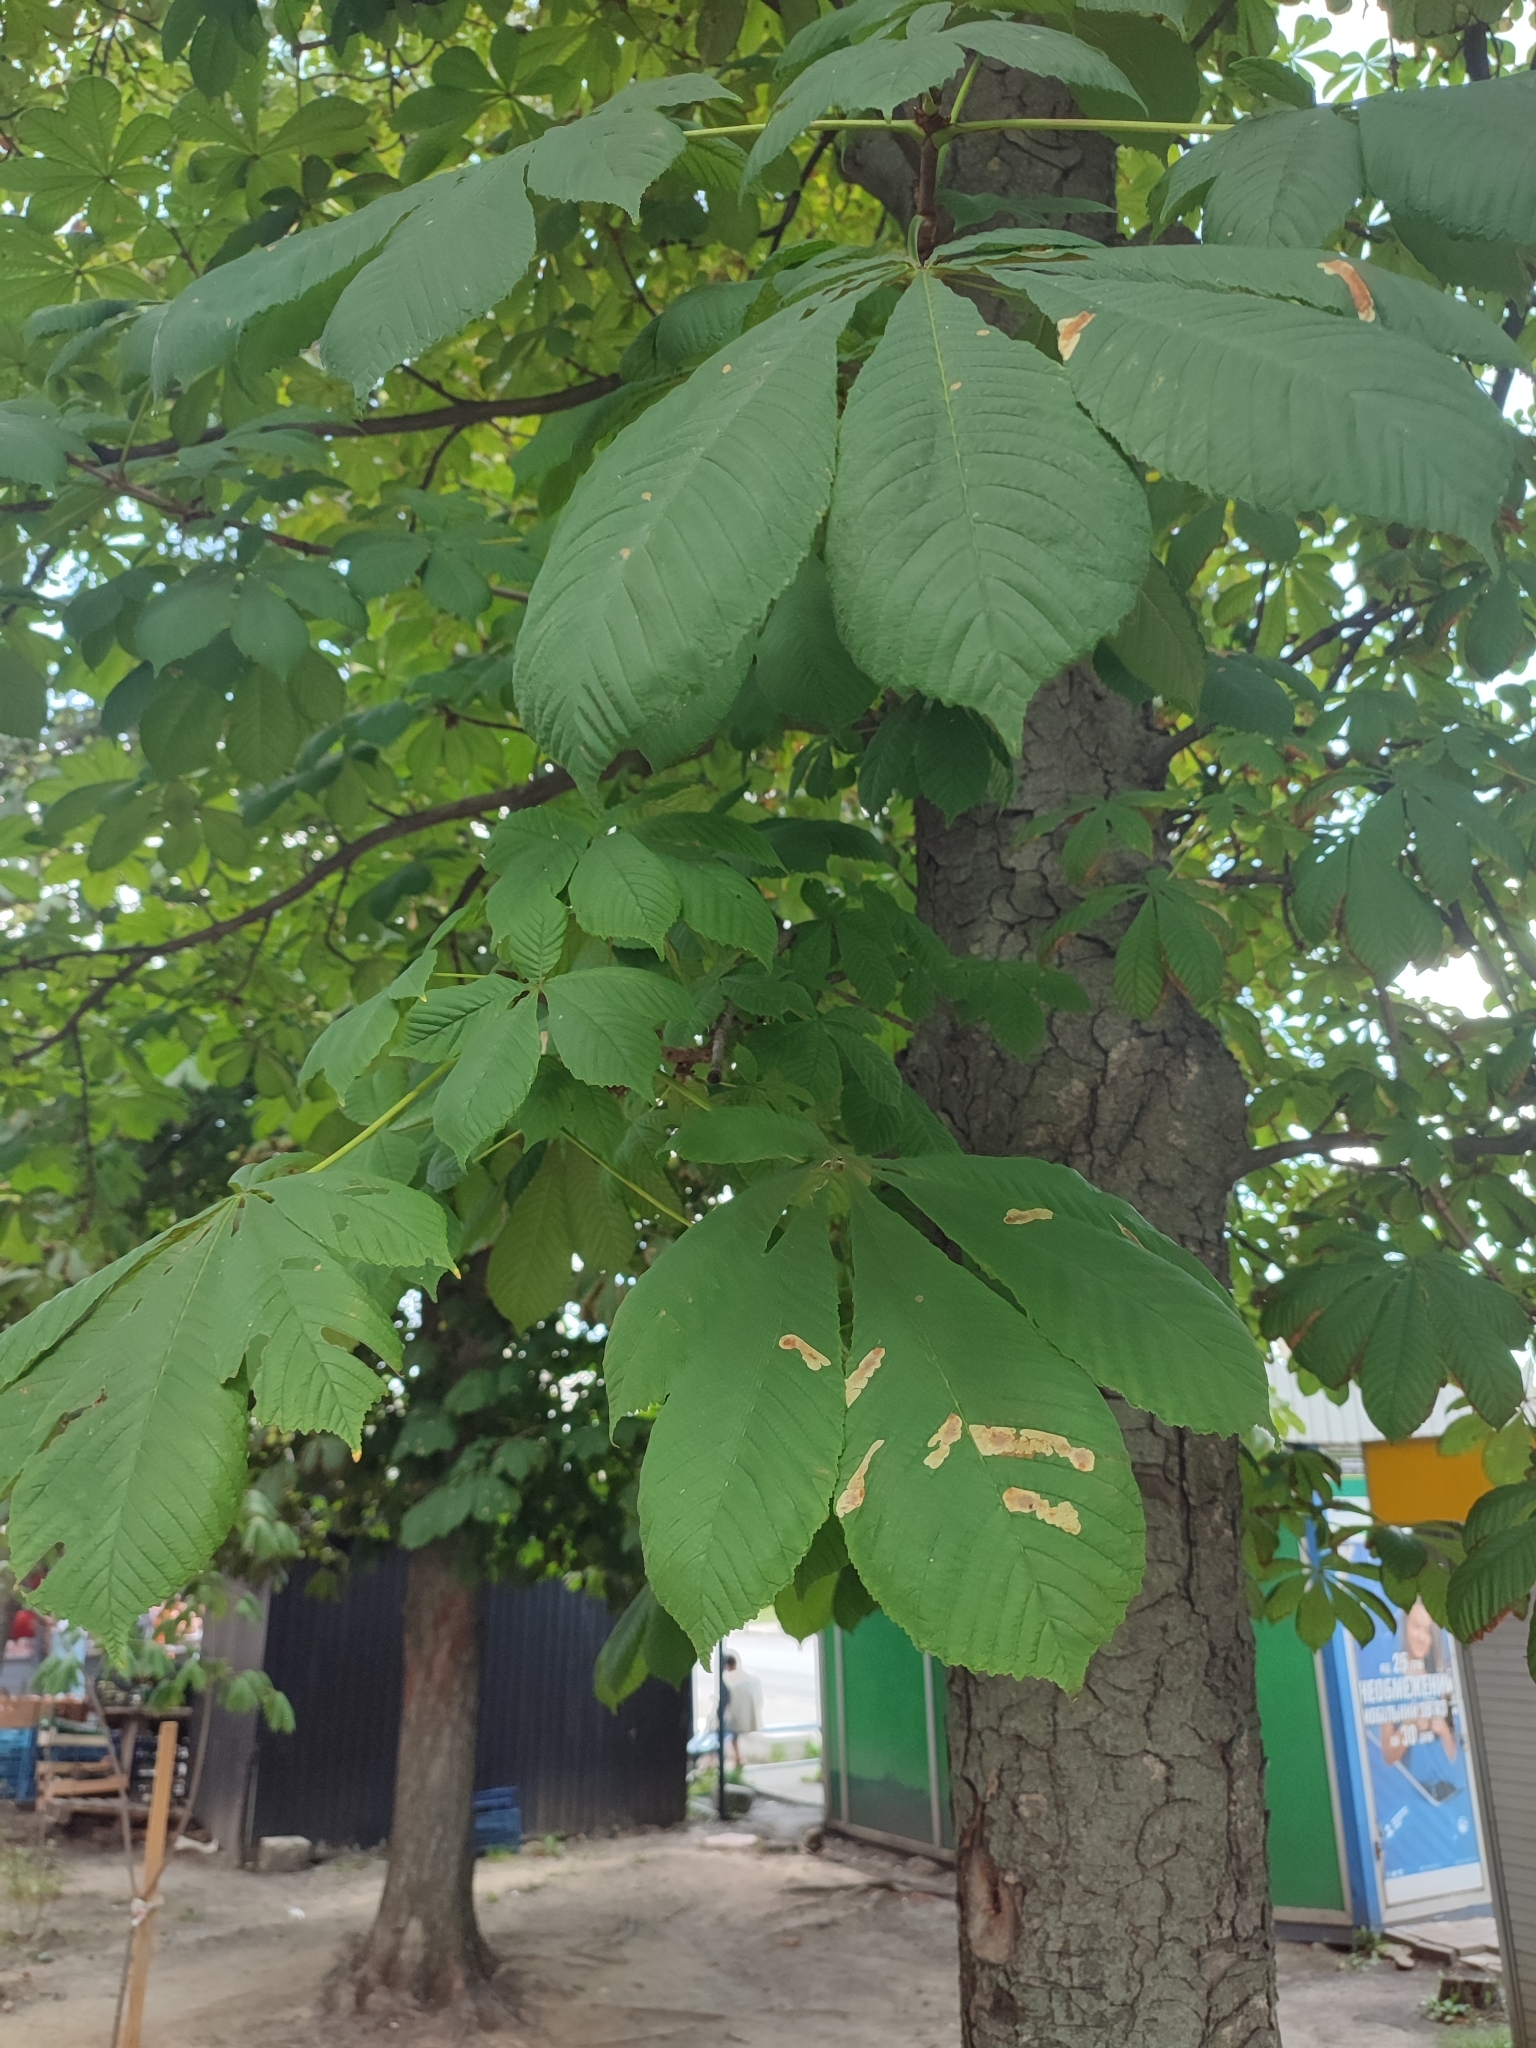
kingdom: Animalia
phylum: Arthropoda
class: Insecta
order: Lepidoptera
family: Gracillariidae
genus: Cameraria
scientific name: Cameraria ohridella
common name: Horse-chestnut leaf-miner
